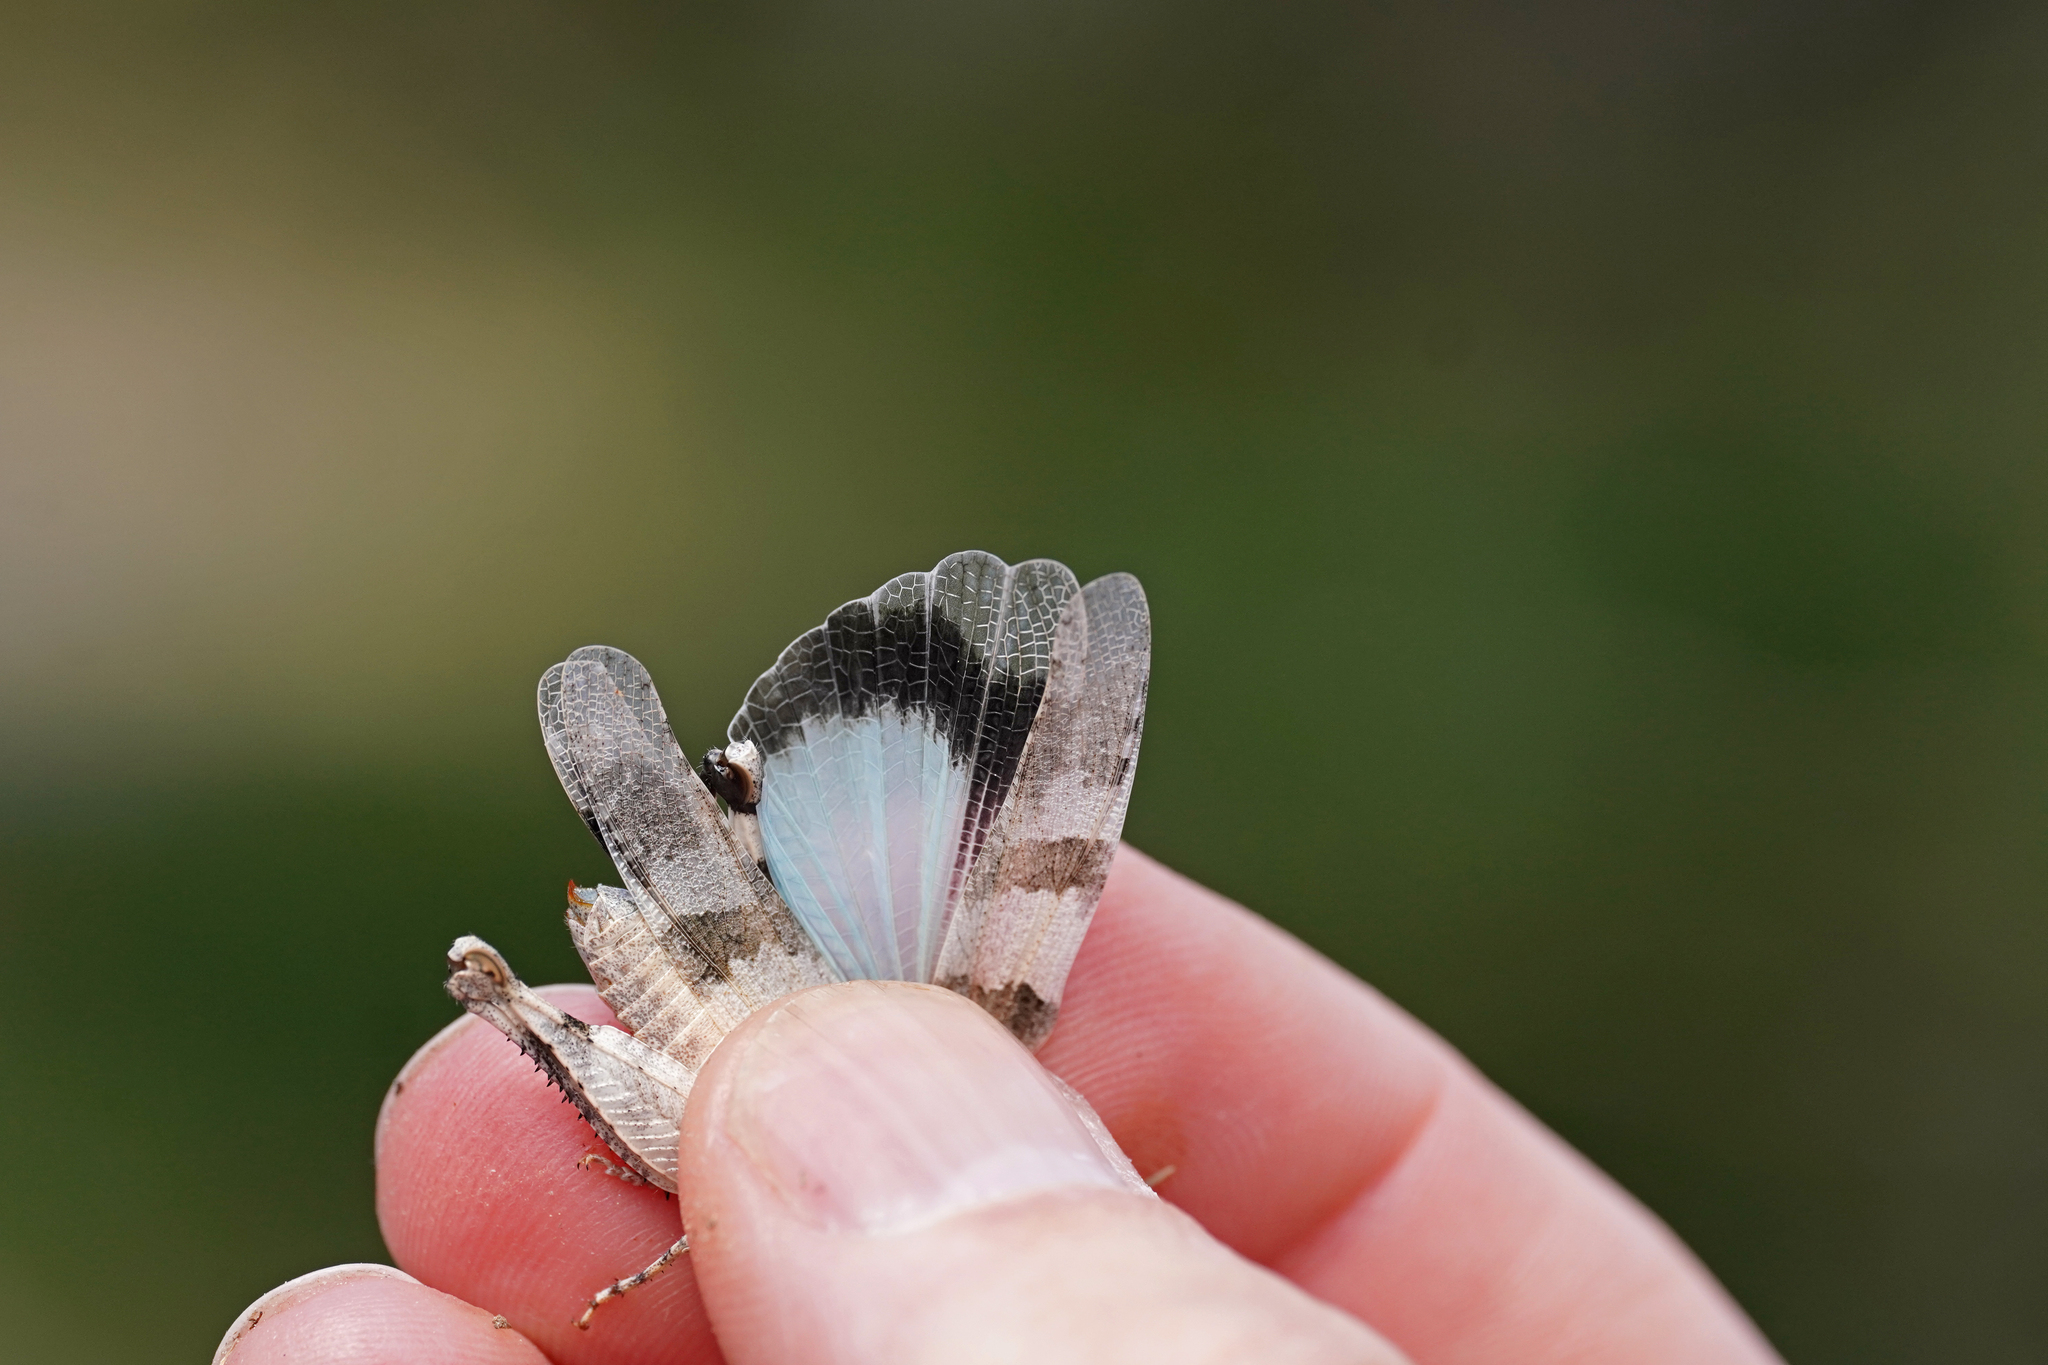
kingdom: Animalia
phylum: Arthropoda
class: Insecta
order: Orthoptera
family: Acrididae
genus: Oedipoda
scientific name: Oedipoda caerulescens
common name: Blue-winged grasshopper
